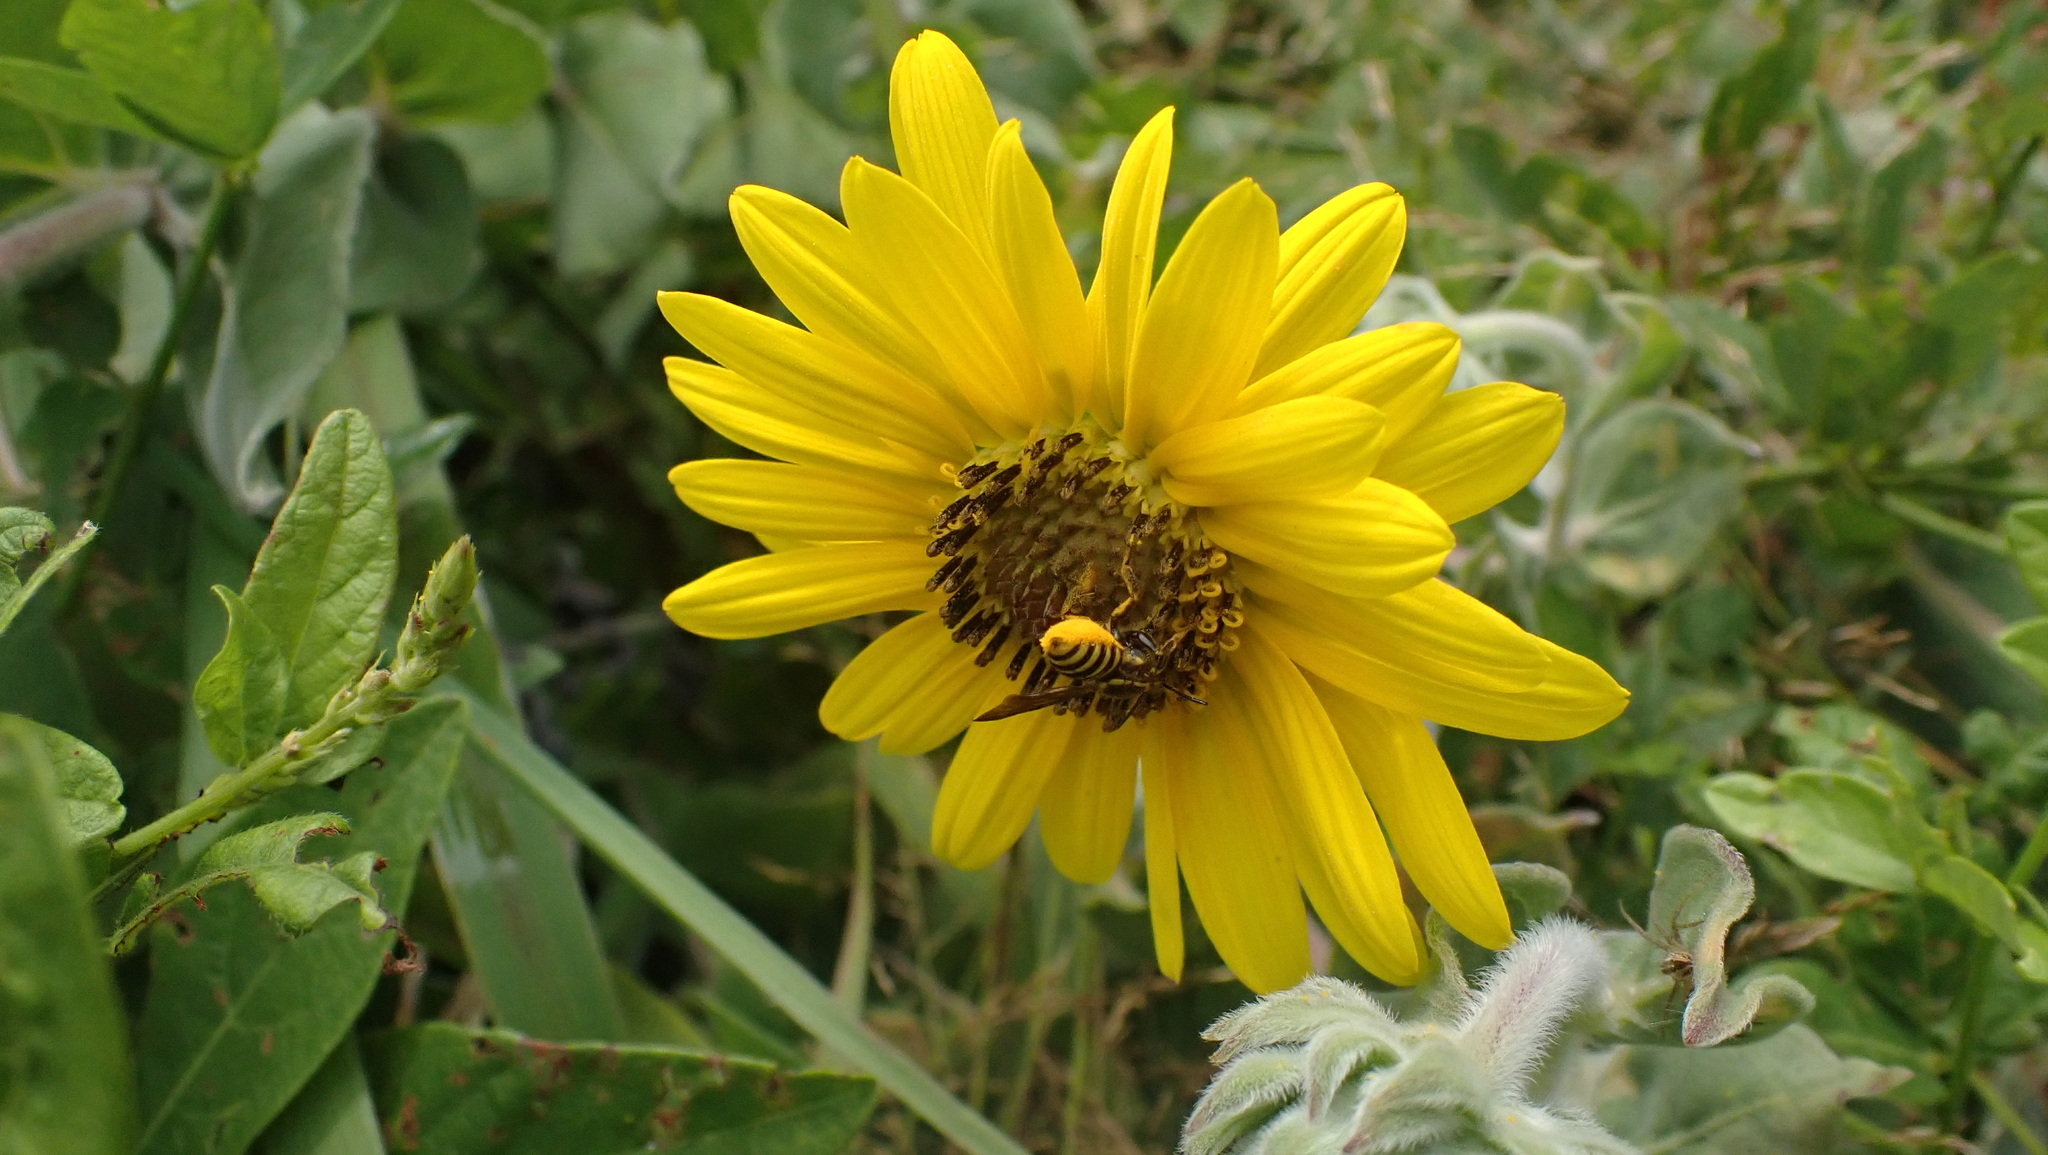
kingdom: Animalia
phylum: Arthropoda
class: Insecta
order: Hymenoptera
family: Megachilidae
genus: Paranthidium
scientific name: Paranthidium jugatorium
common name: Sunflower burrowing-resin bee
